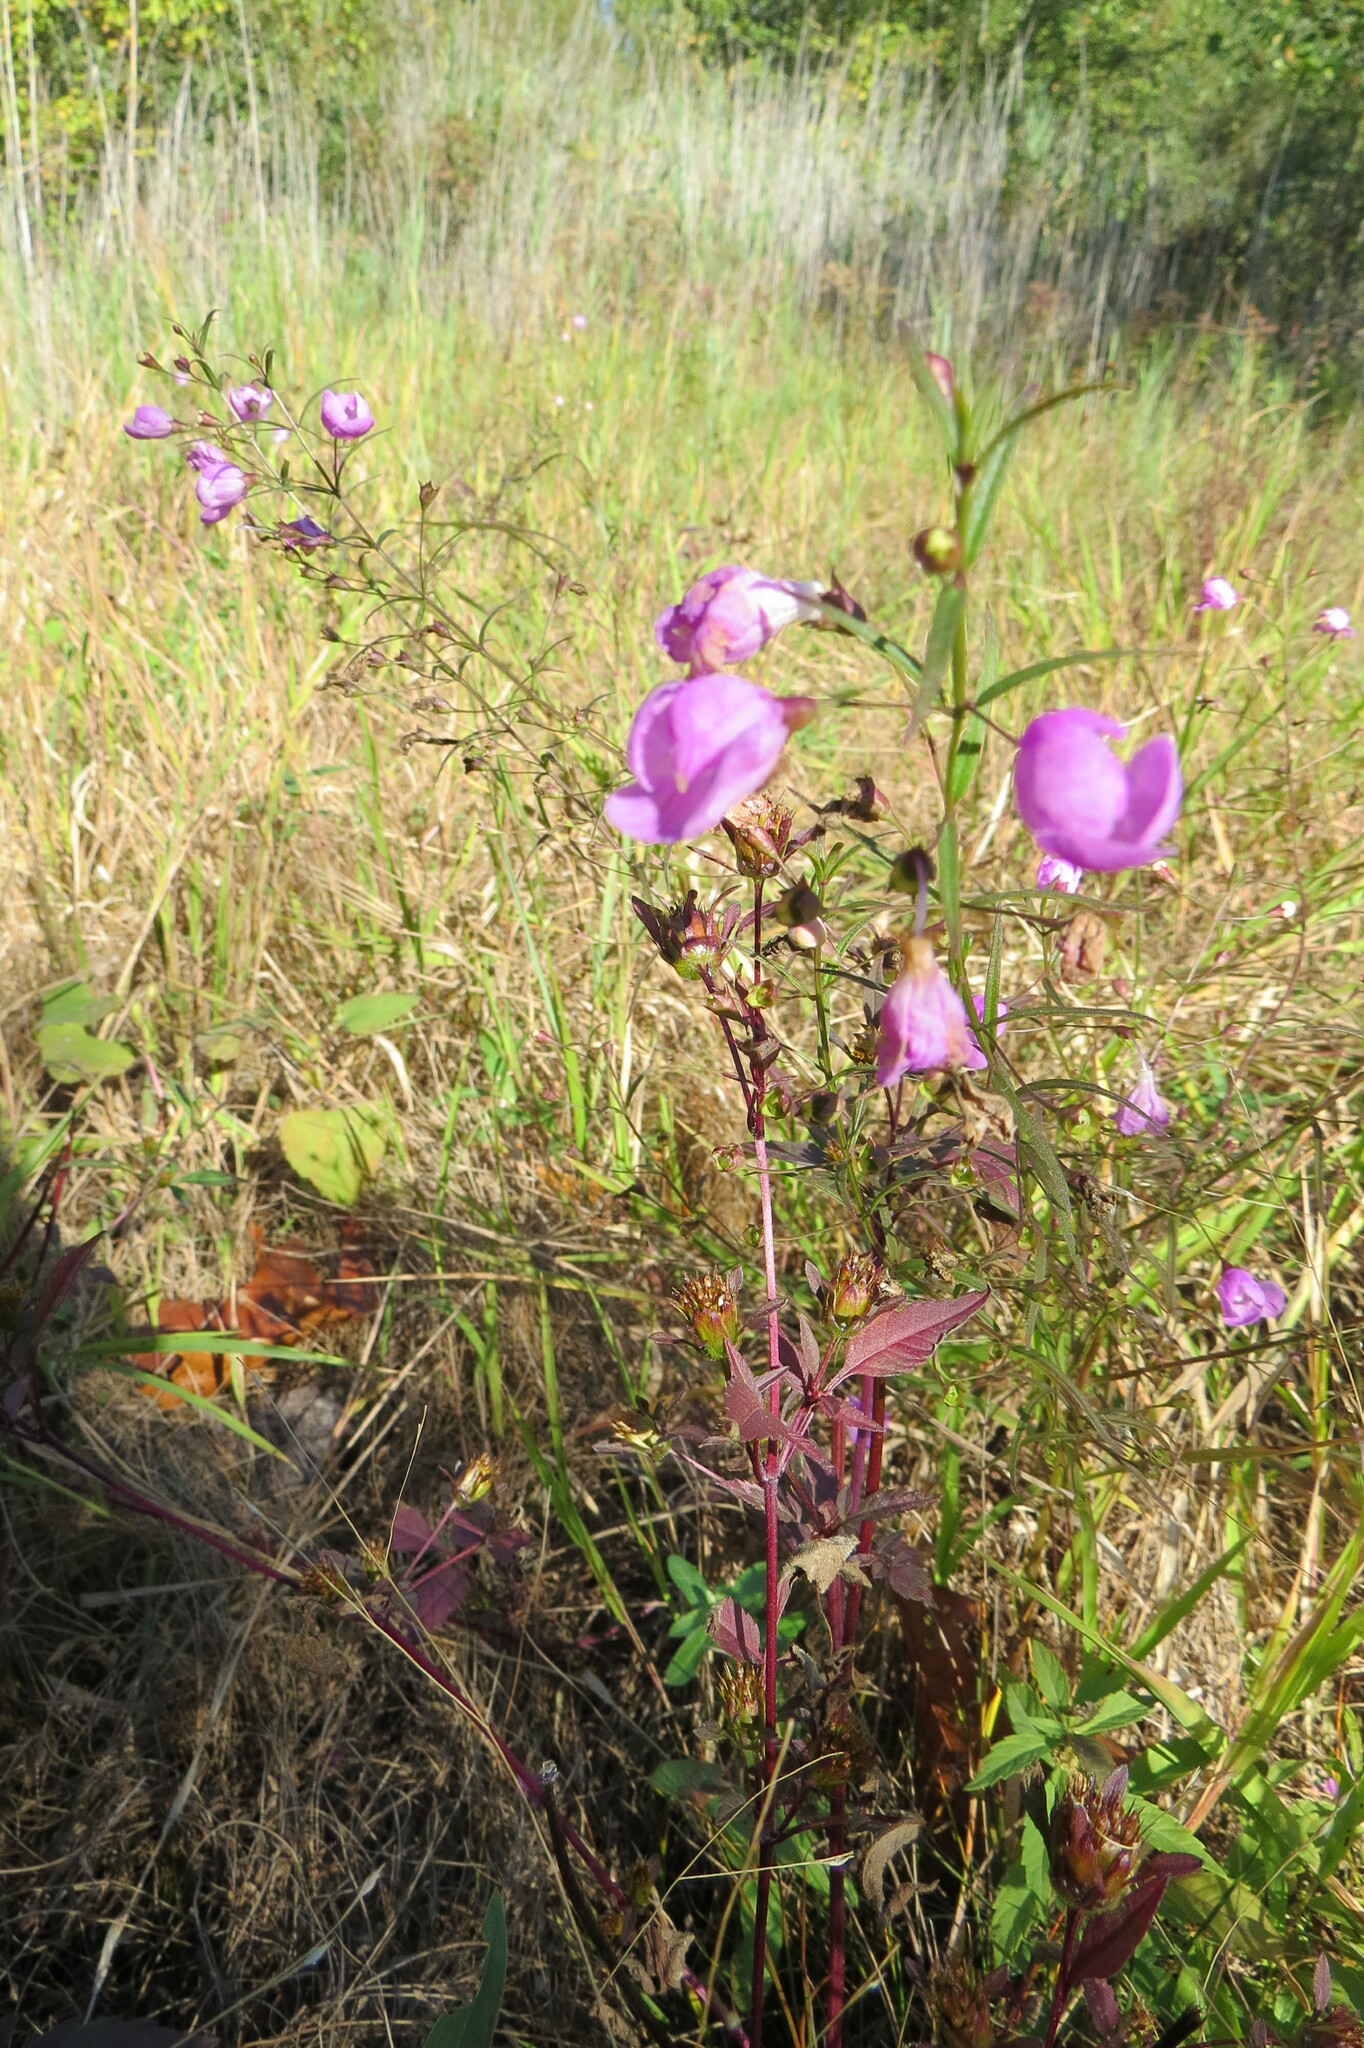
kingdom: Plantae
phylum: Tracheophyta
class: Magnoliopsida
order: Lamiales
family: Orobanchaceae
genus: Agalinis
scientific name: Agalinis tenuifolia
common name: Slender agalinis
